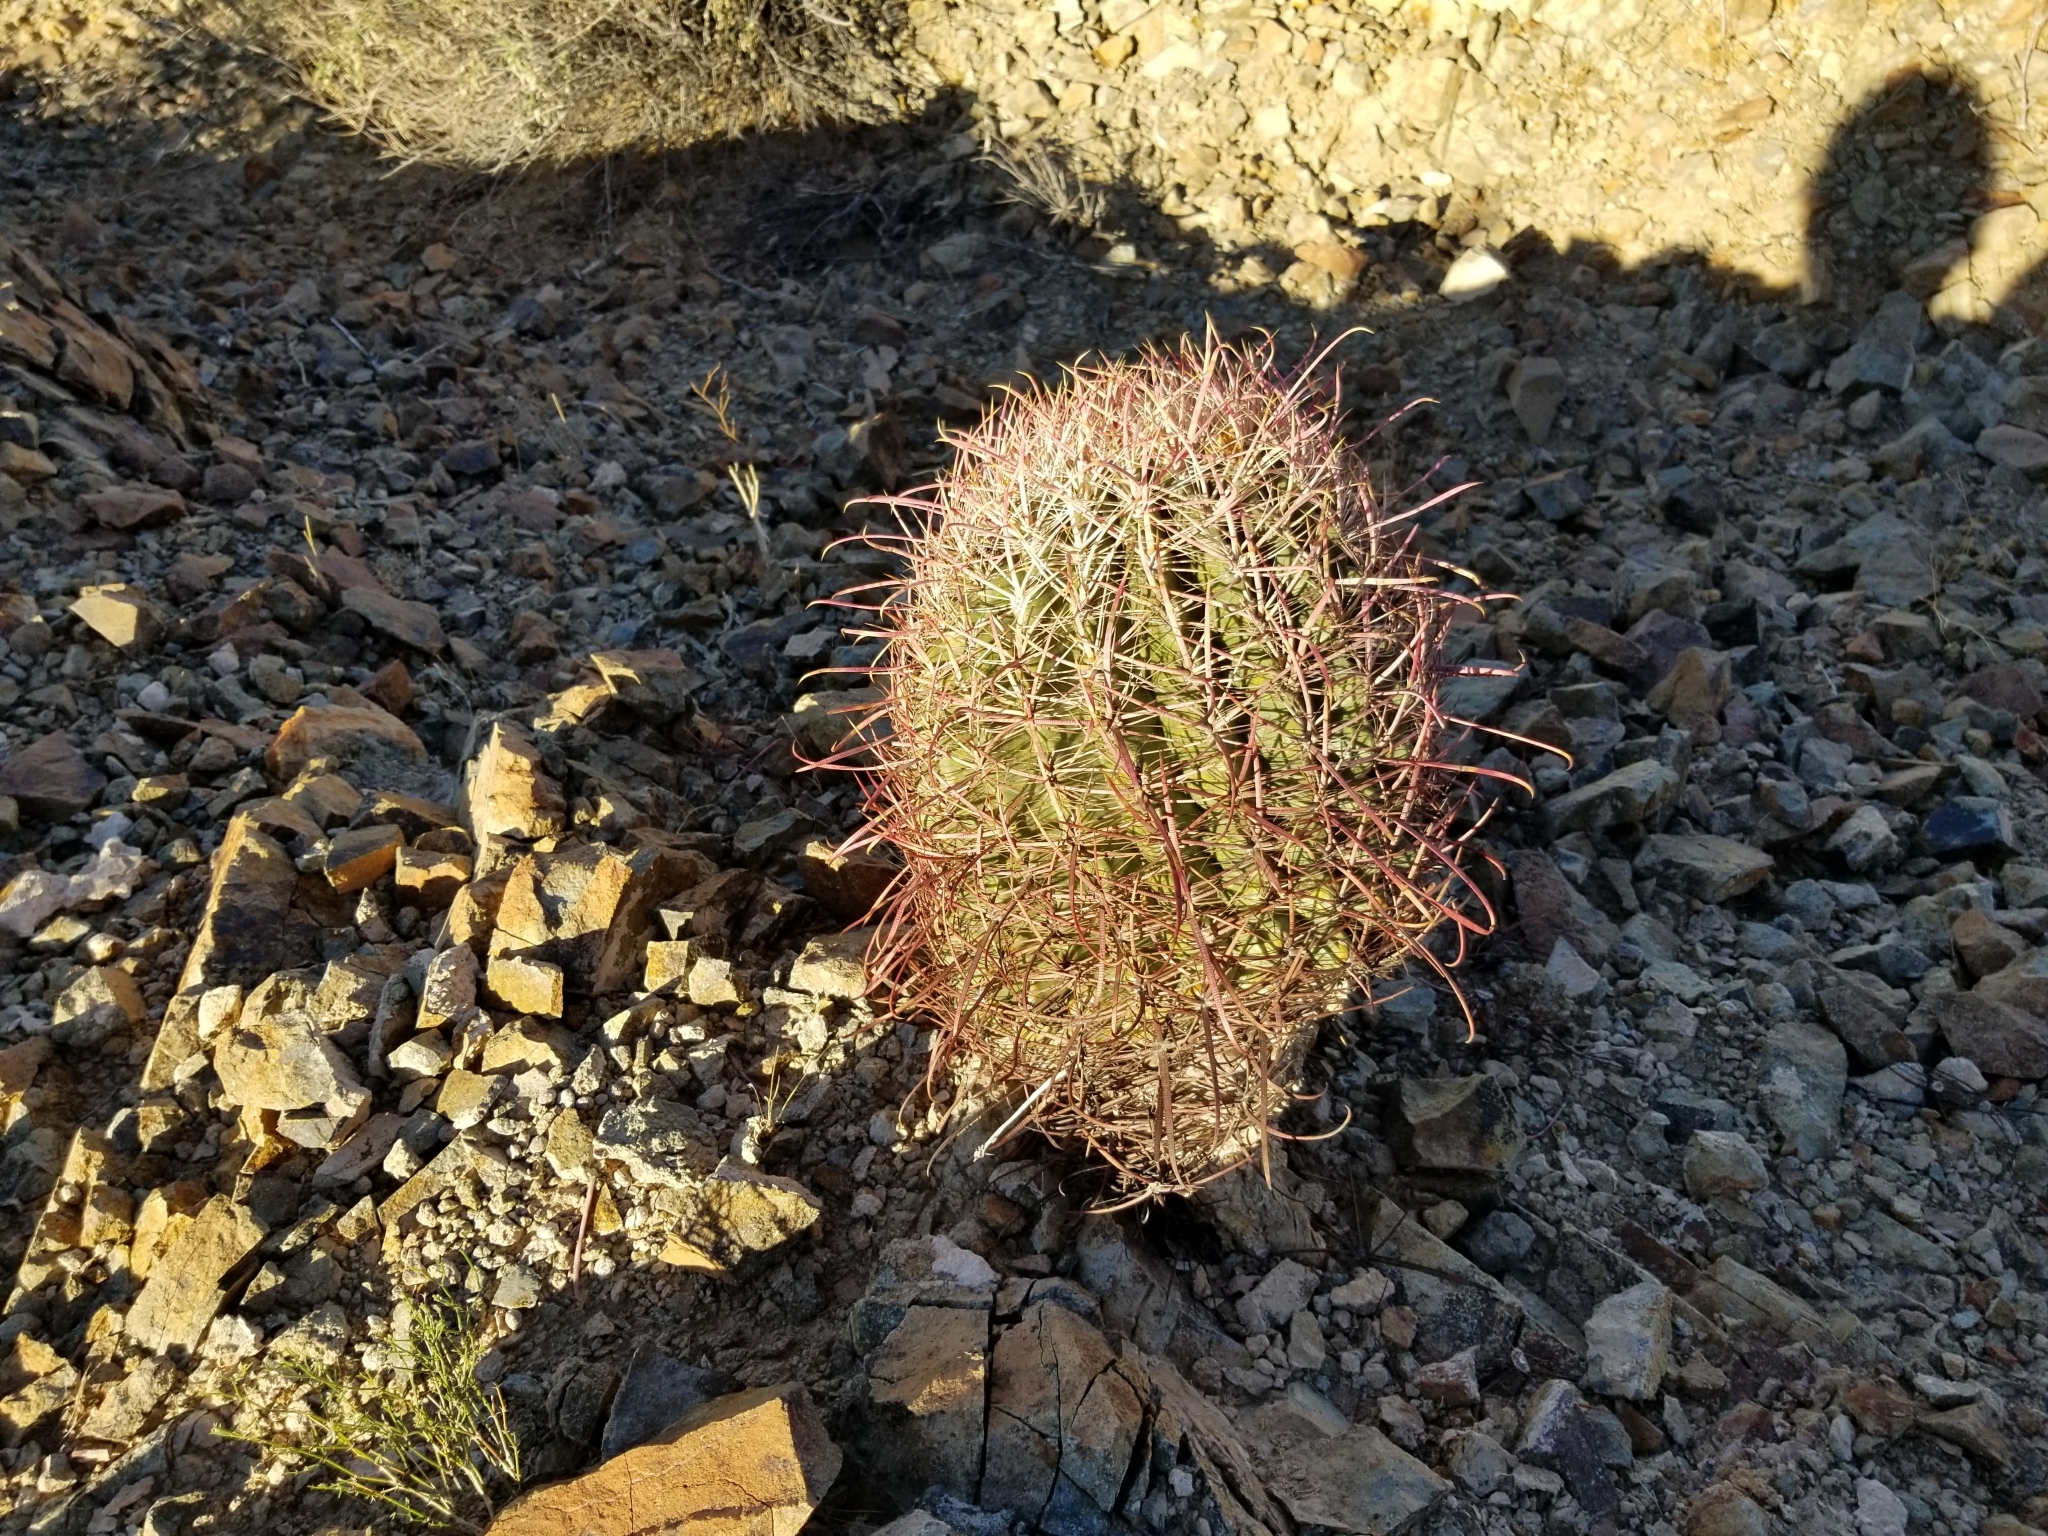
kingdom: Plantae
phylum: Tracheophyta
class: Magnoliopsida
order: Caryophyllales
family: Cactaceae
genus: Ferocactus
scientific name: Ferocactus cylindraceus
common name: California barrel cactus
